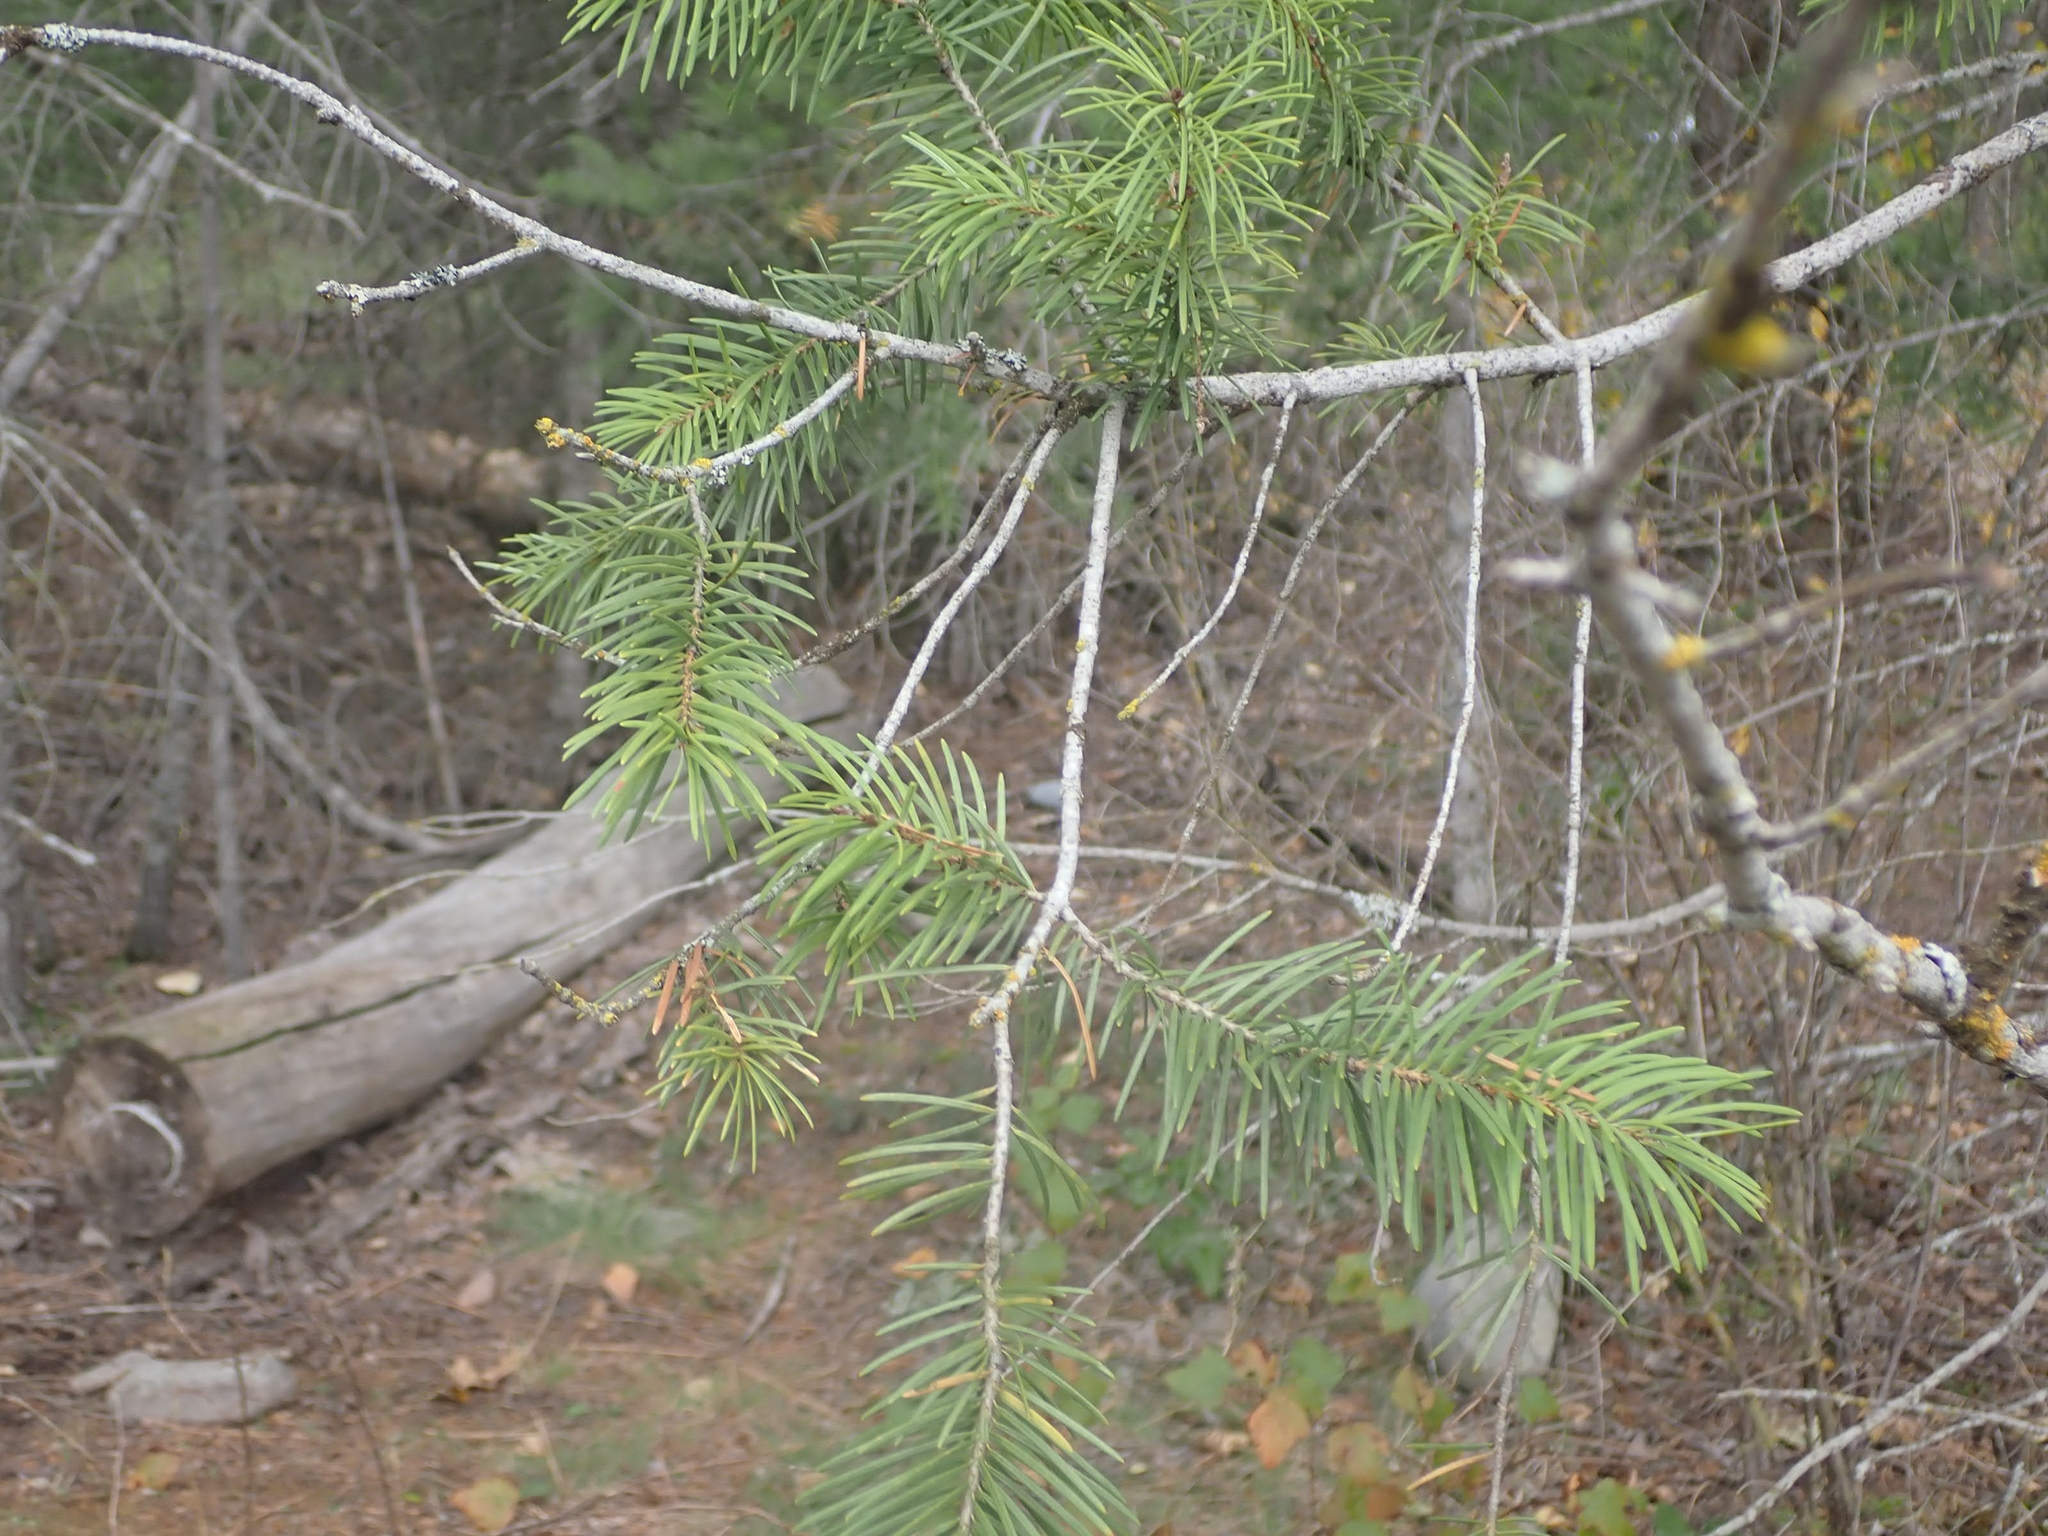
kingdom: Plantae
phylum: Tracheophyta
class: Pinopsida
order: Pinales
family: Pinaceae
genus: Pseudotsuga
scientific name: Pseudotsuga menziesii
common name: Douglas fir
